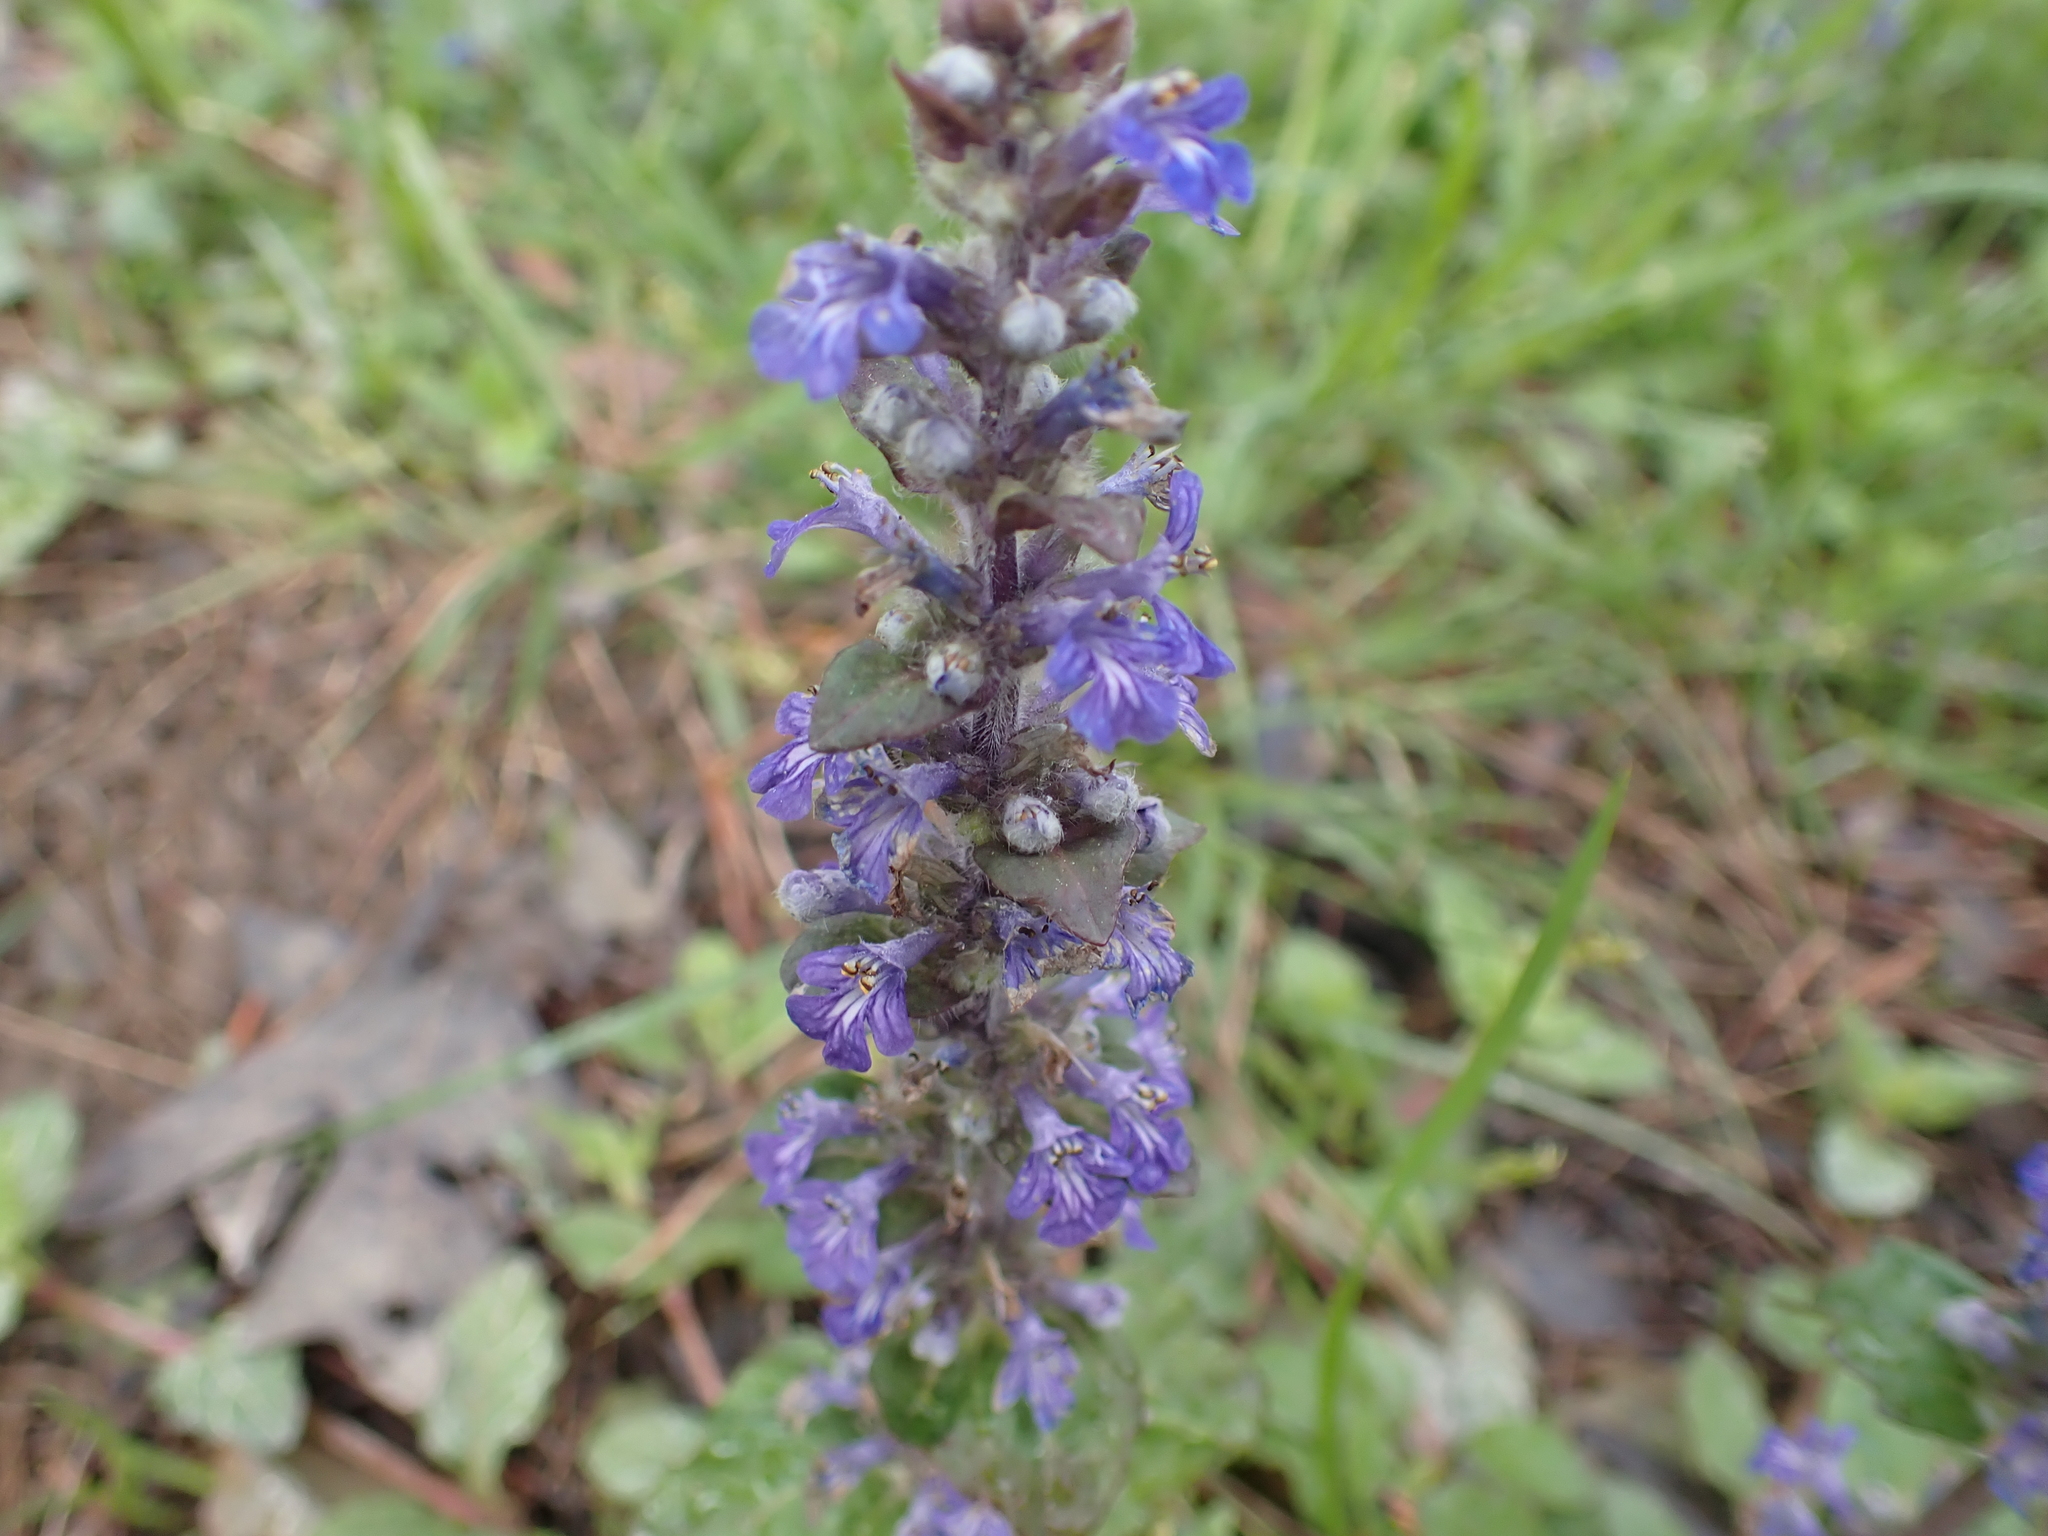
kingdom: Plantae
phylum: Tracheophyta
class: Magnoliopsida
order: Lamiales
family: Lamiaceae
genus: Ajuga
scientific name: Ajuga reptans
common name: Bugle
